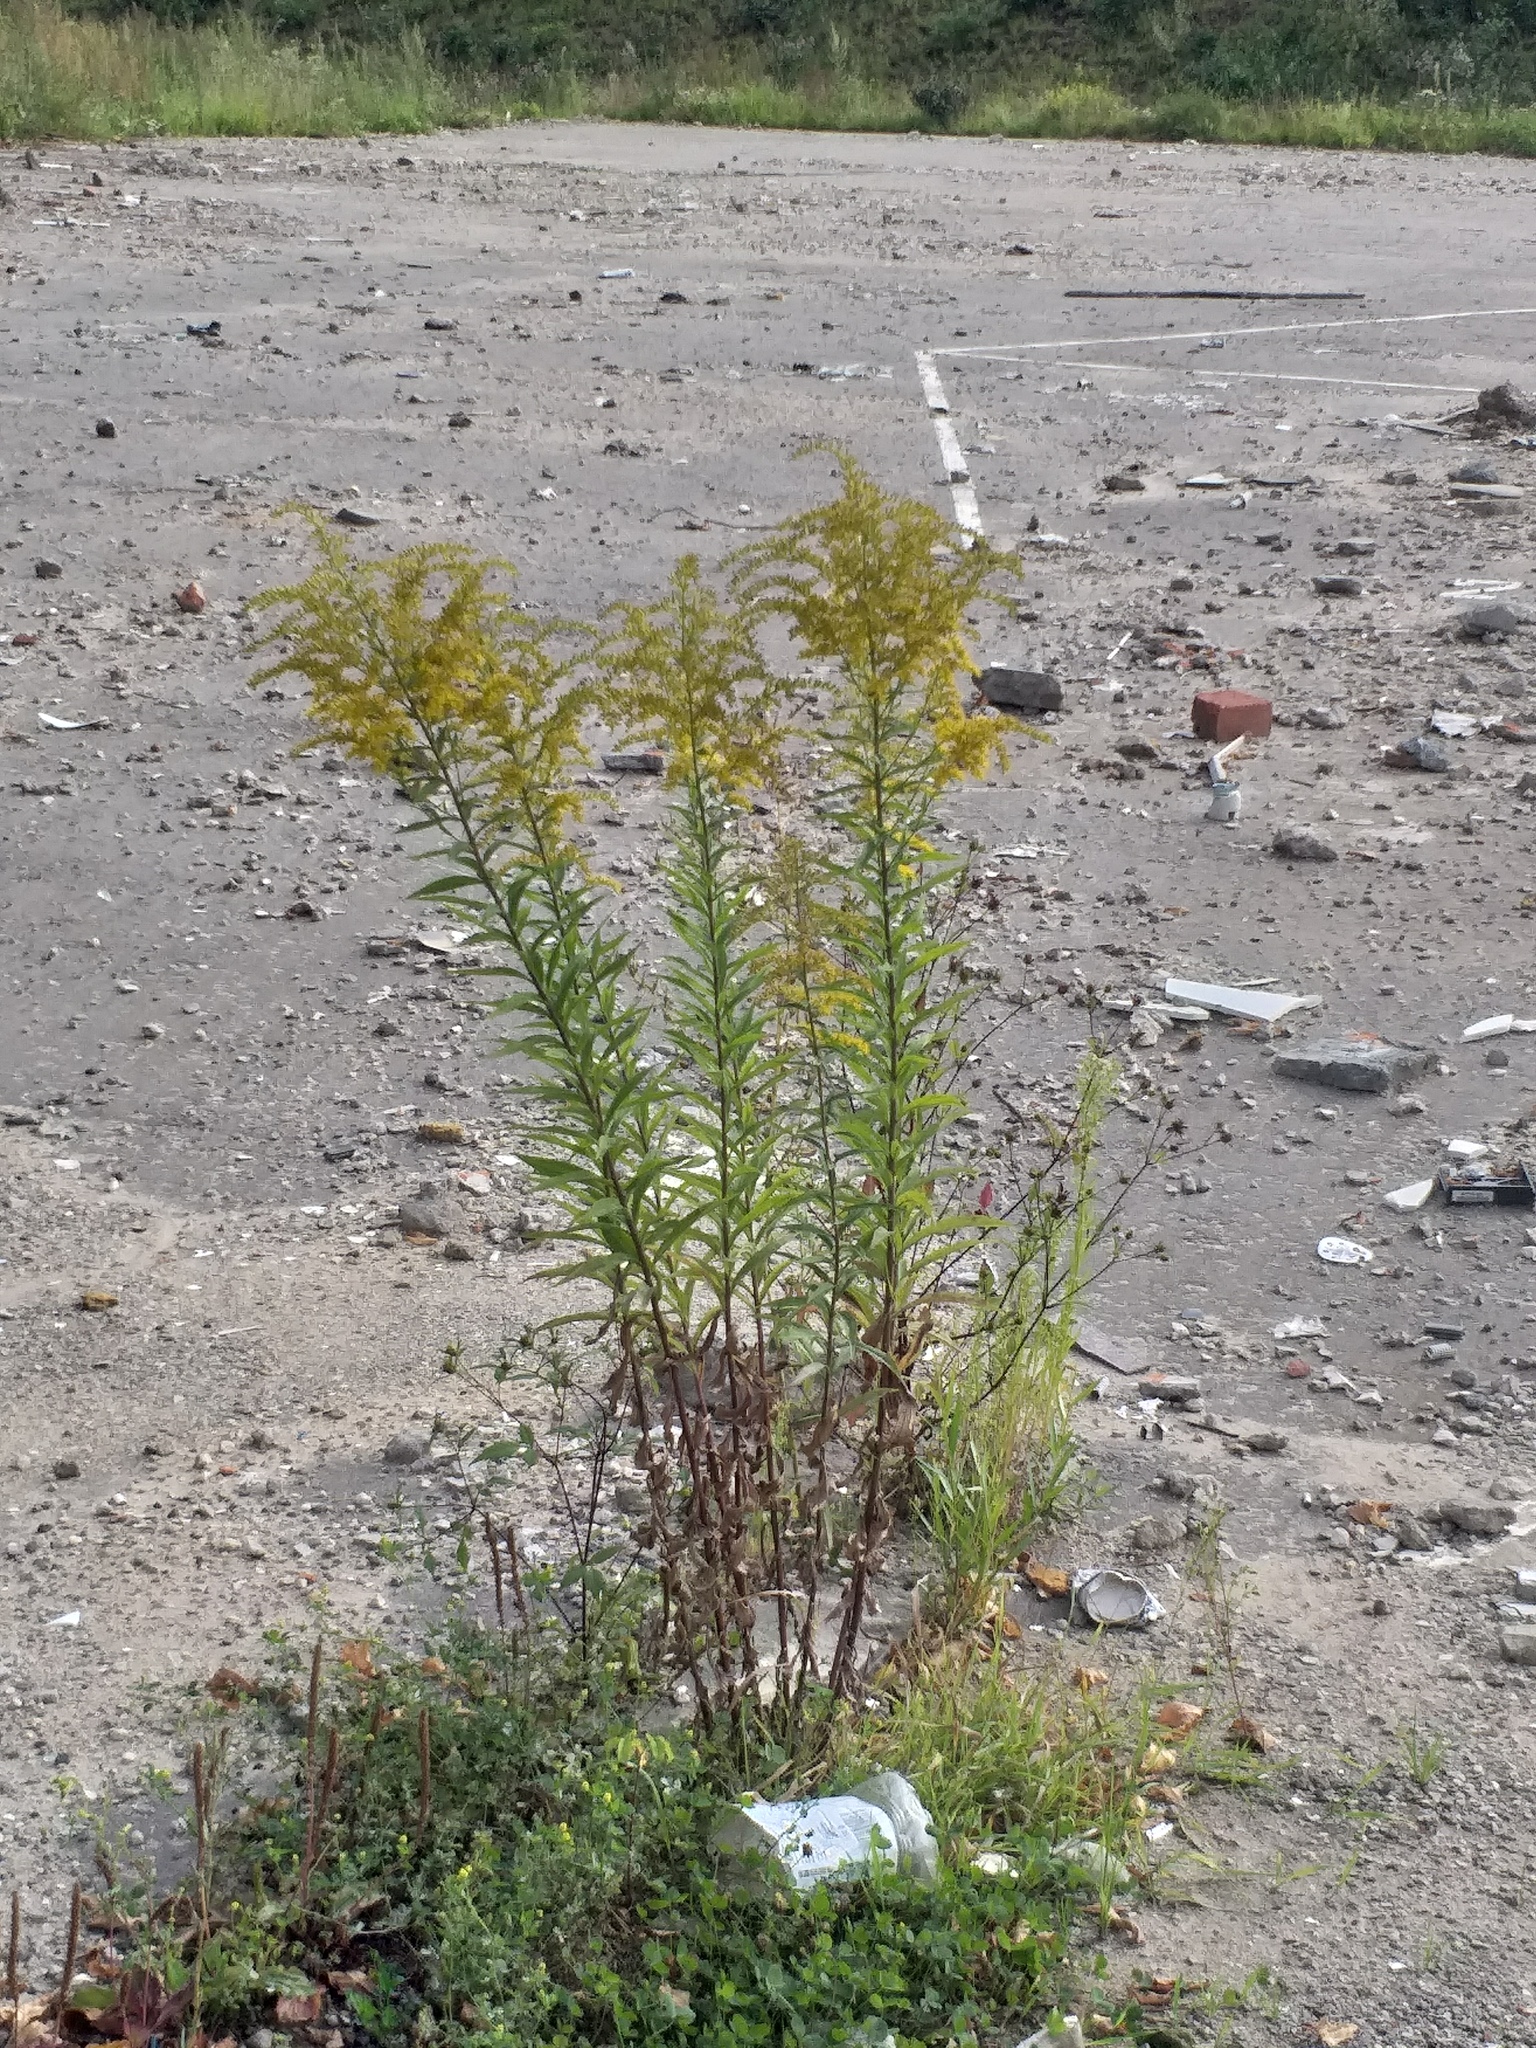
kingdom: Plantae
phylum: Tracheophyta
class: Magnoliopsida
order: Asterales
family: Asteraceae
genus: Solidago
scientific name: Solidago canadensis
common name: Canada goldenrod
